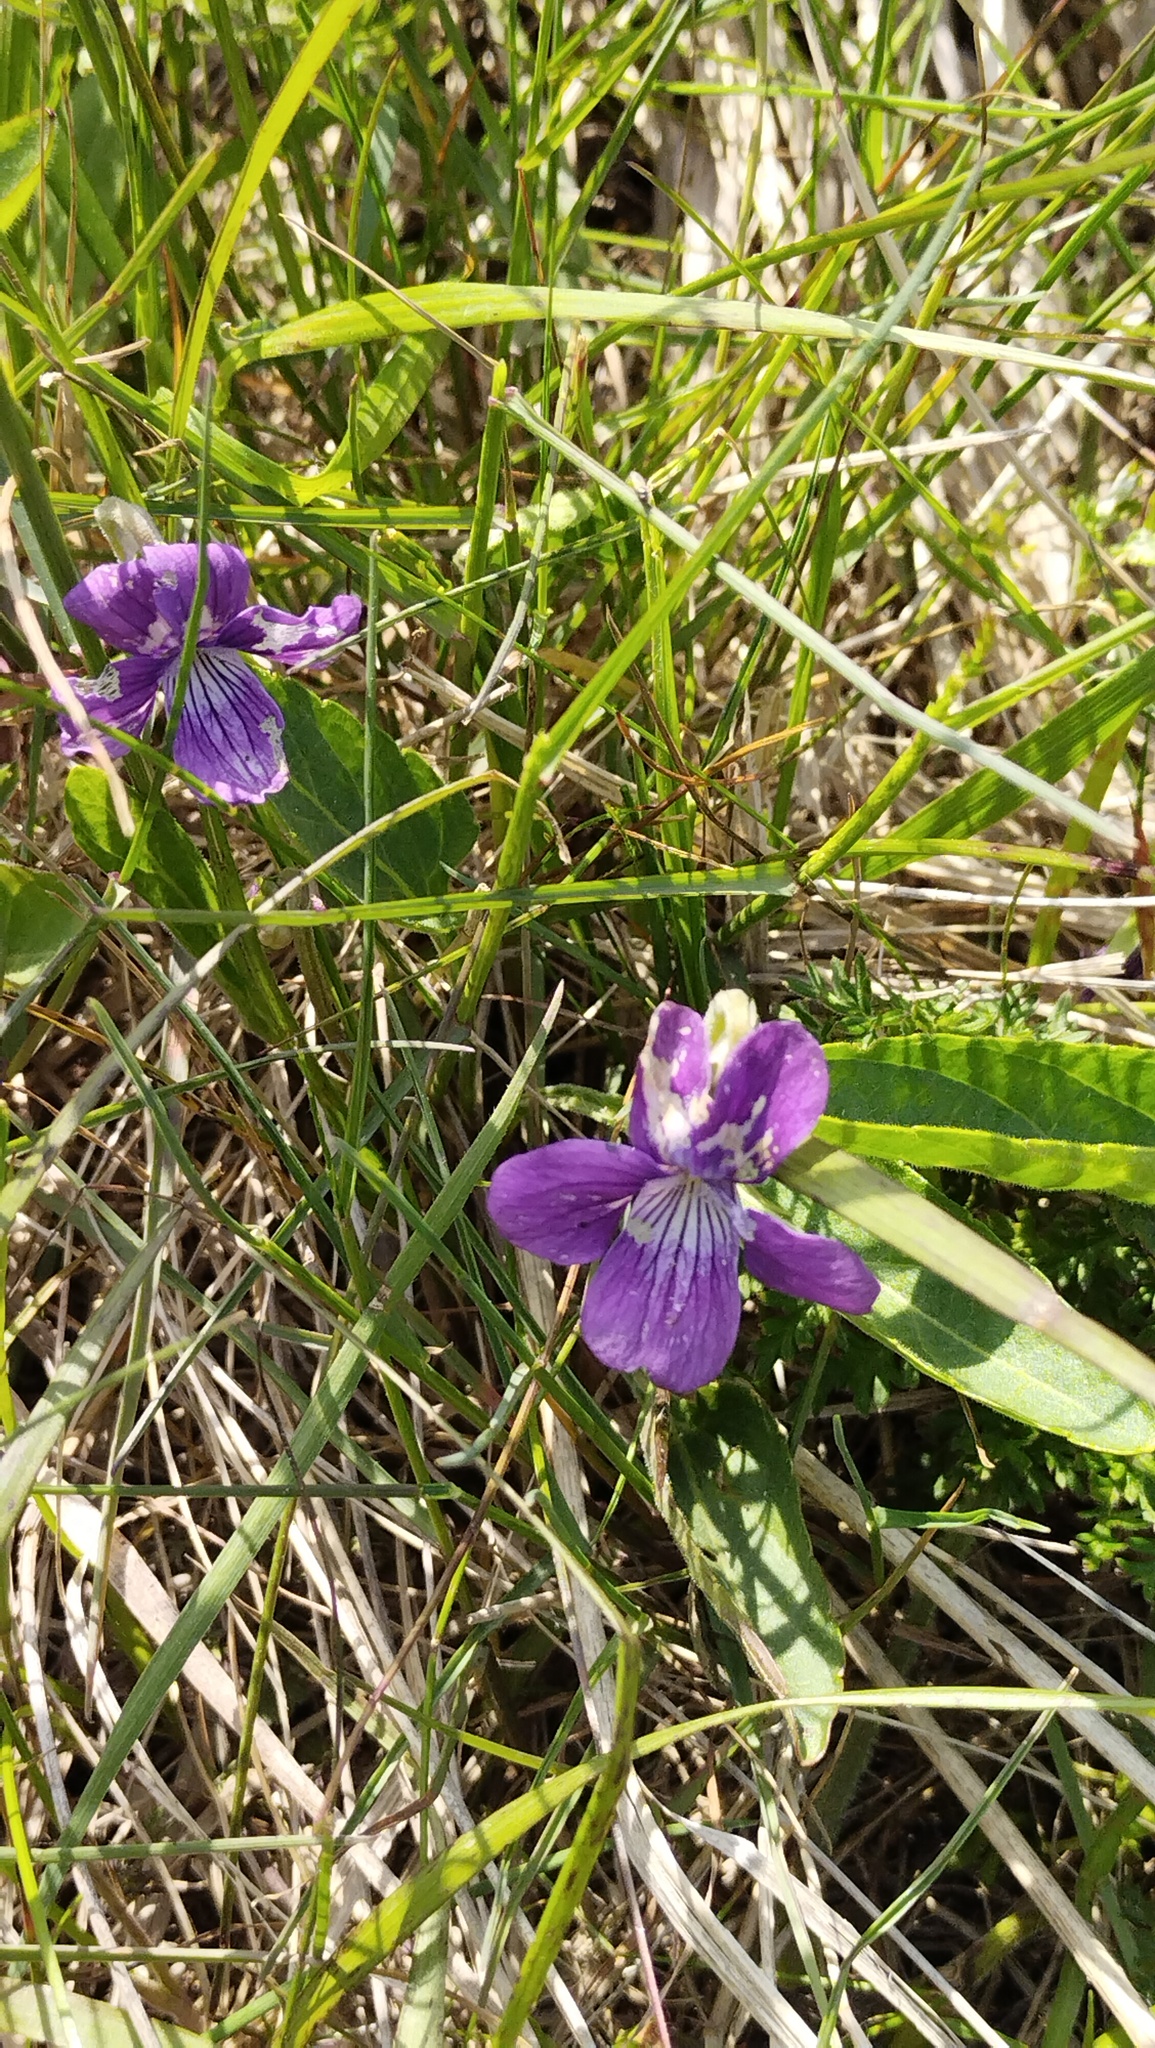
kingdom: Plantae
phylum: Tracheophyta
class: Magnoliopsida
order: Malpighiales
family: Violaceae
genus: Viola
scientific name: Viola mandshurica
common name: Manchuria violet
